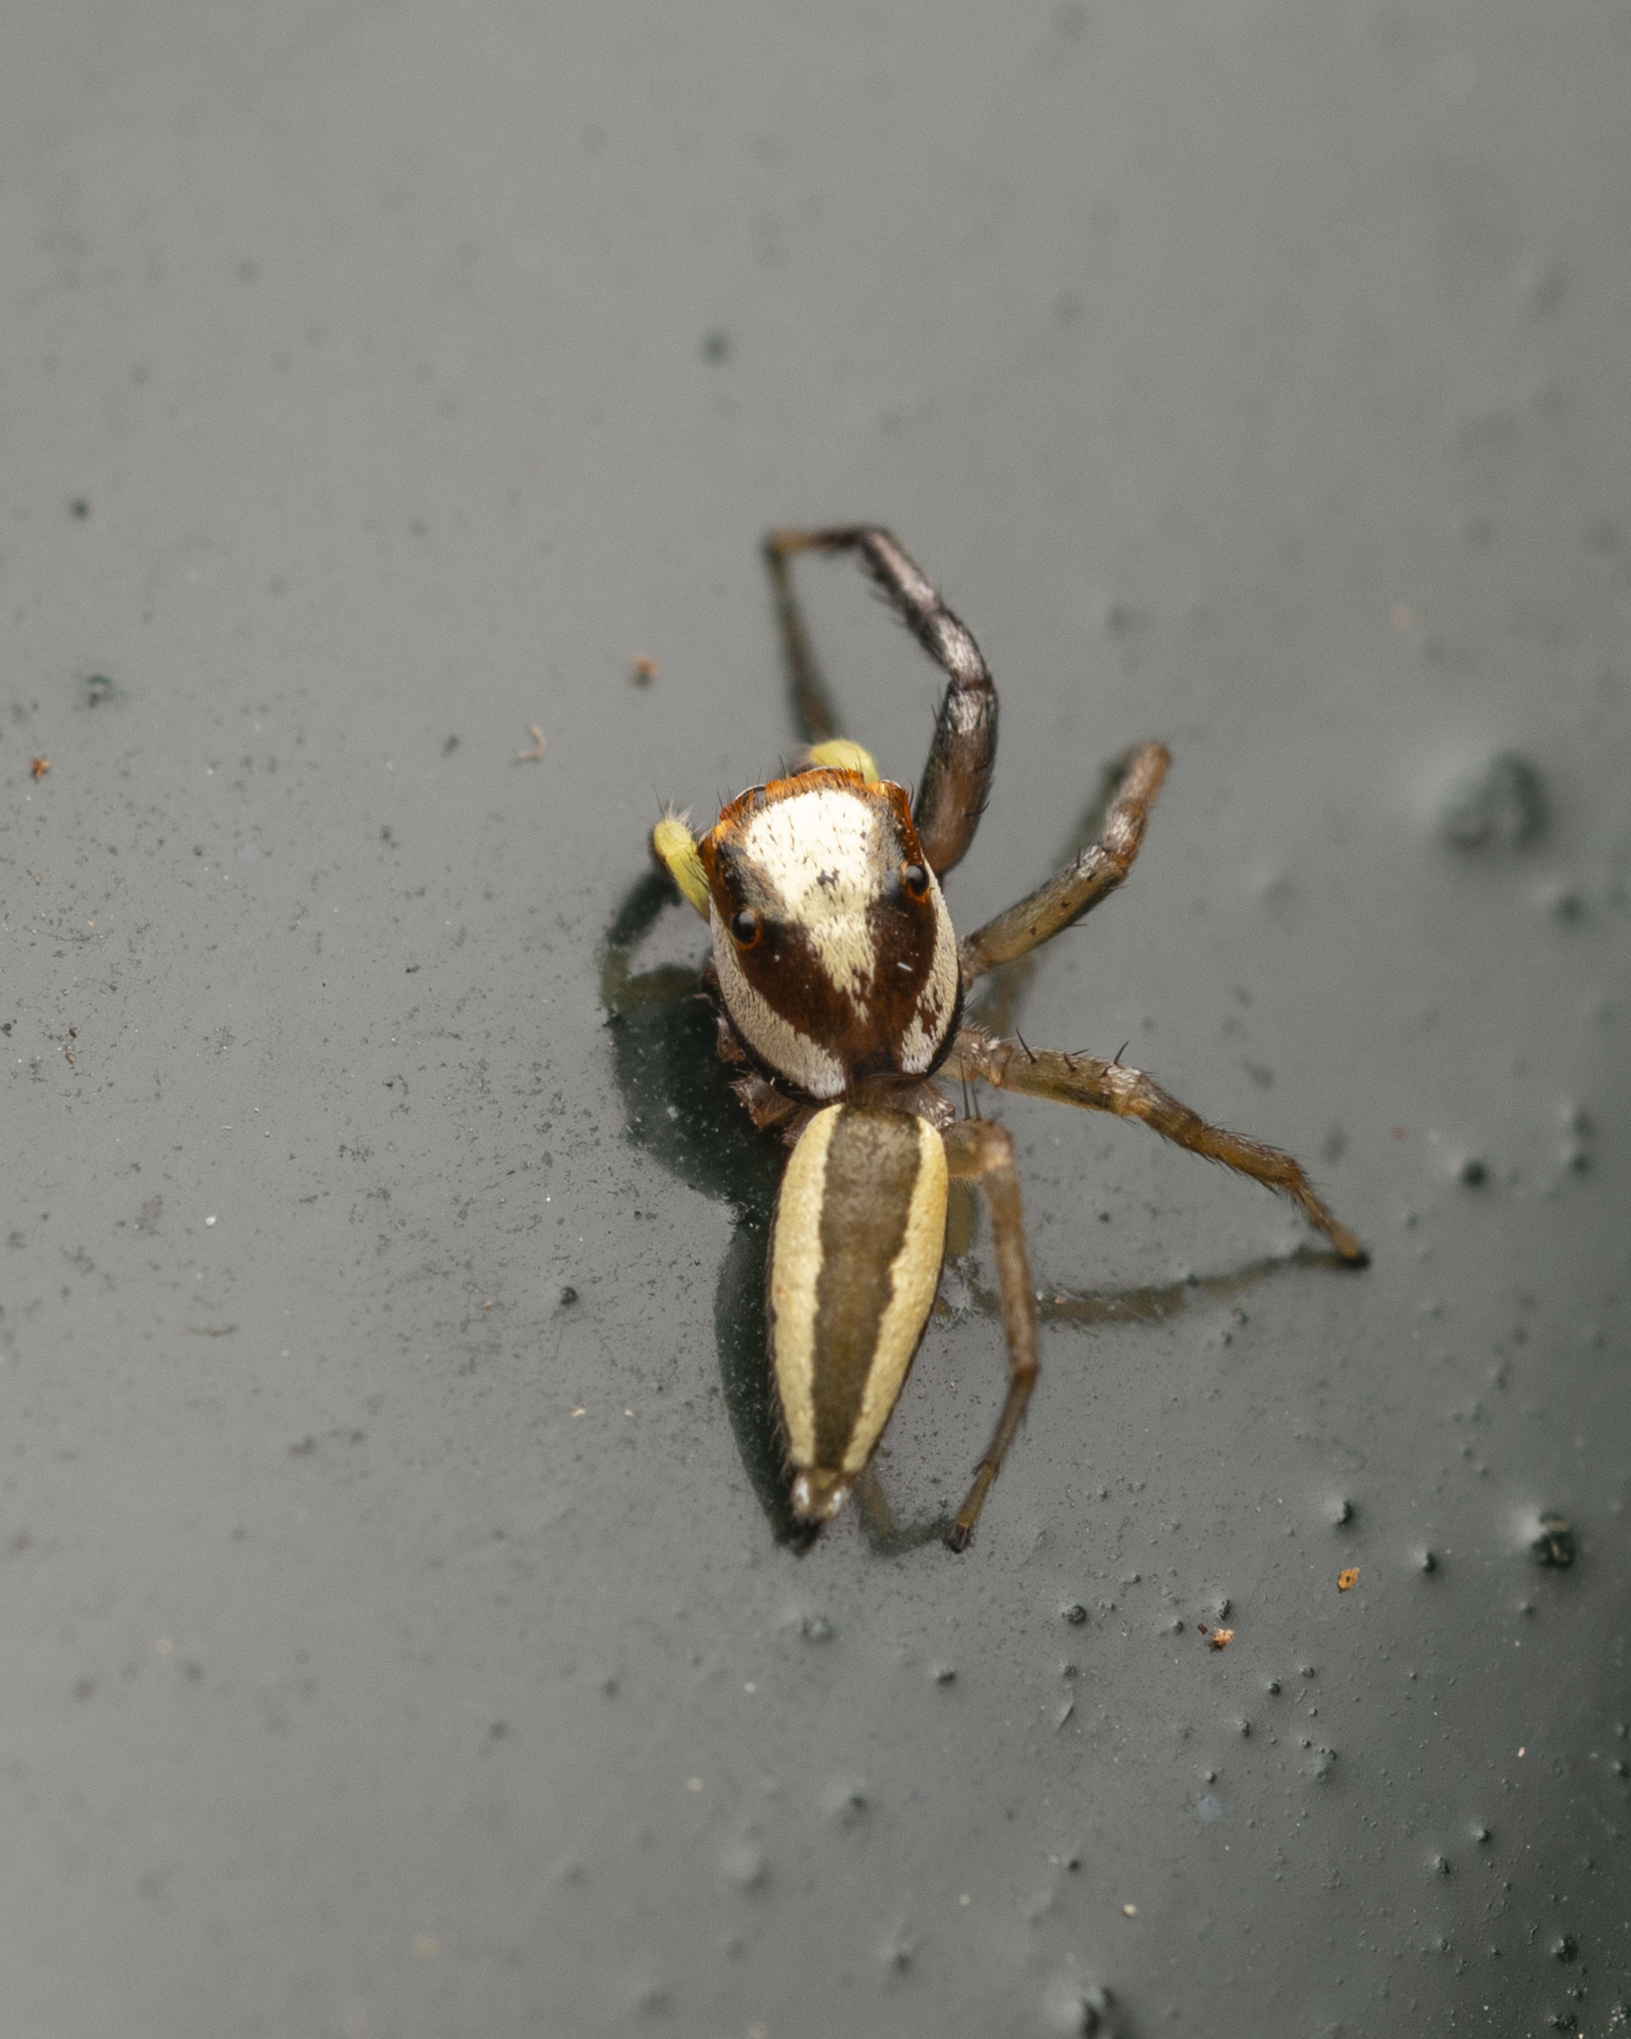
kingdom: Animalia
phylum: Arthropoda
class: Arachnida
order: Araneae
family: Salticidae
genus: Epocilla
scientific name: Epocilla blairei
